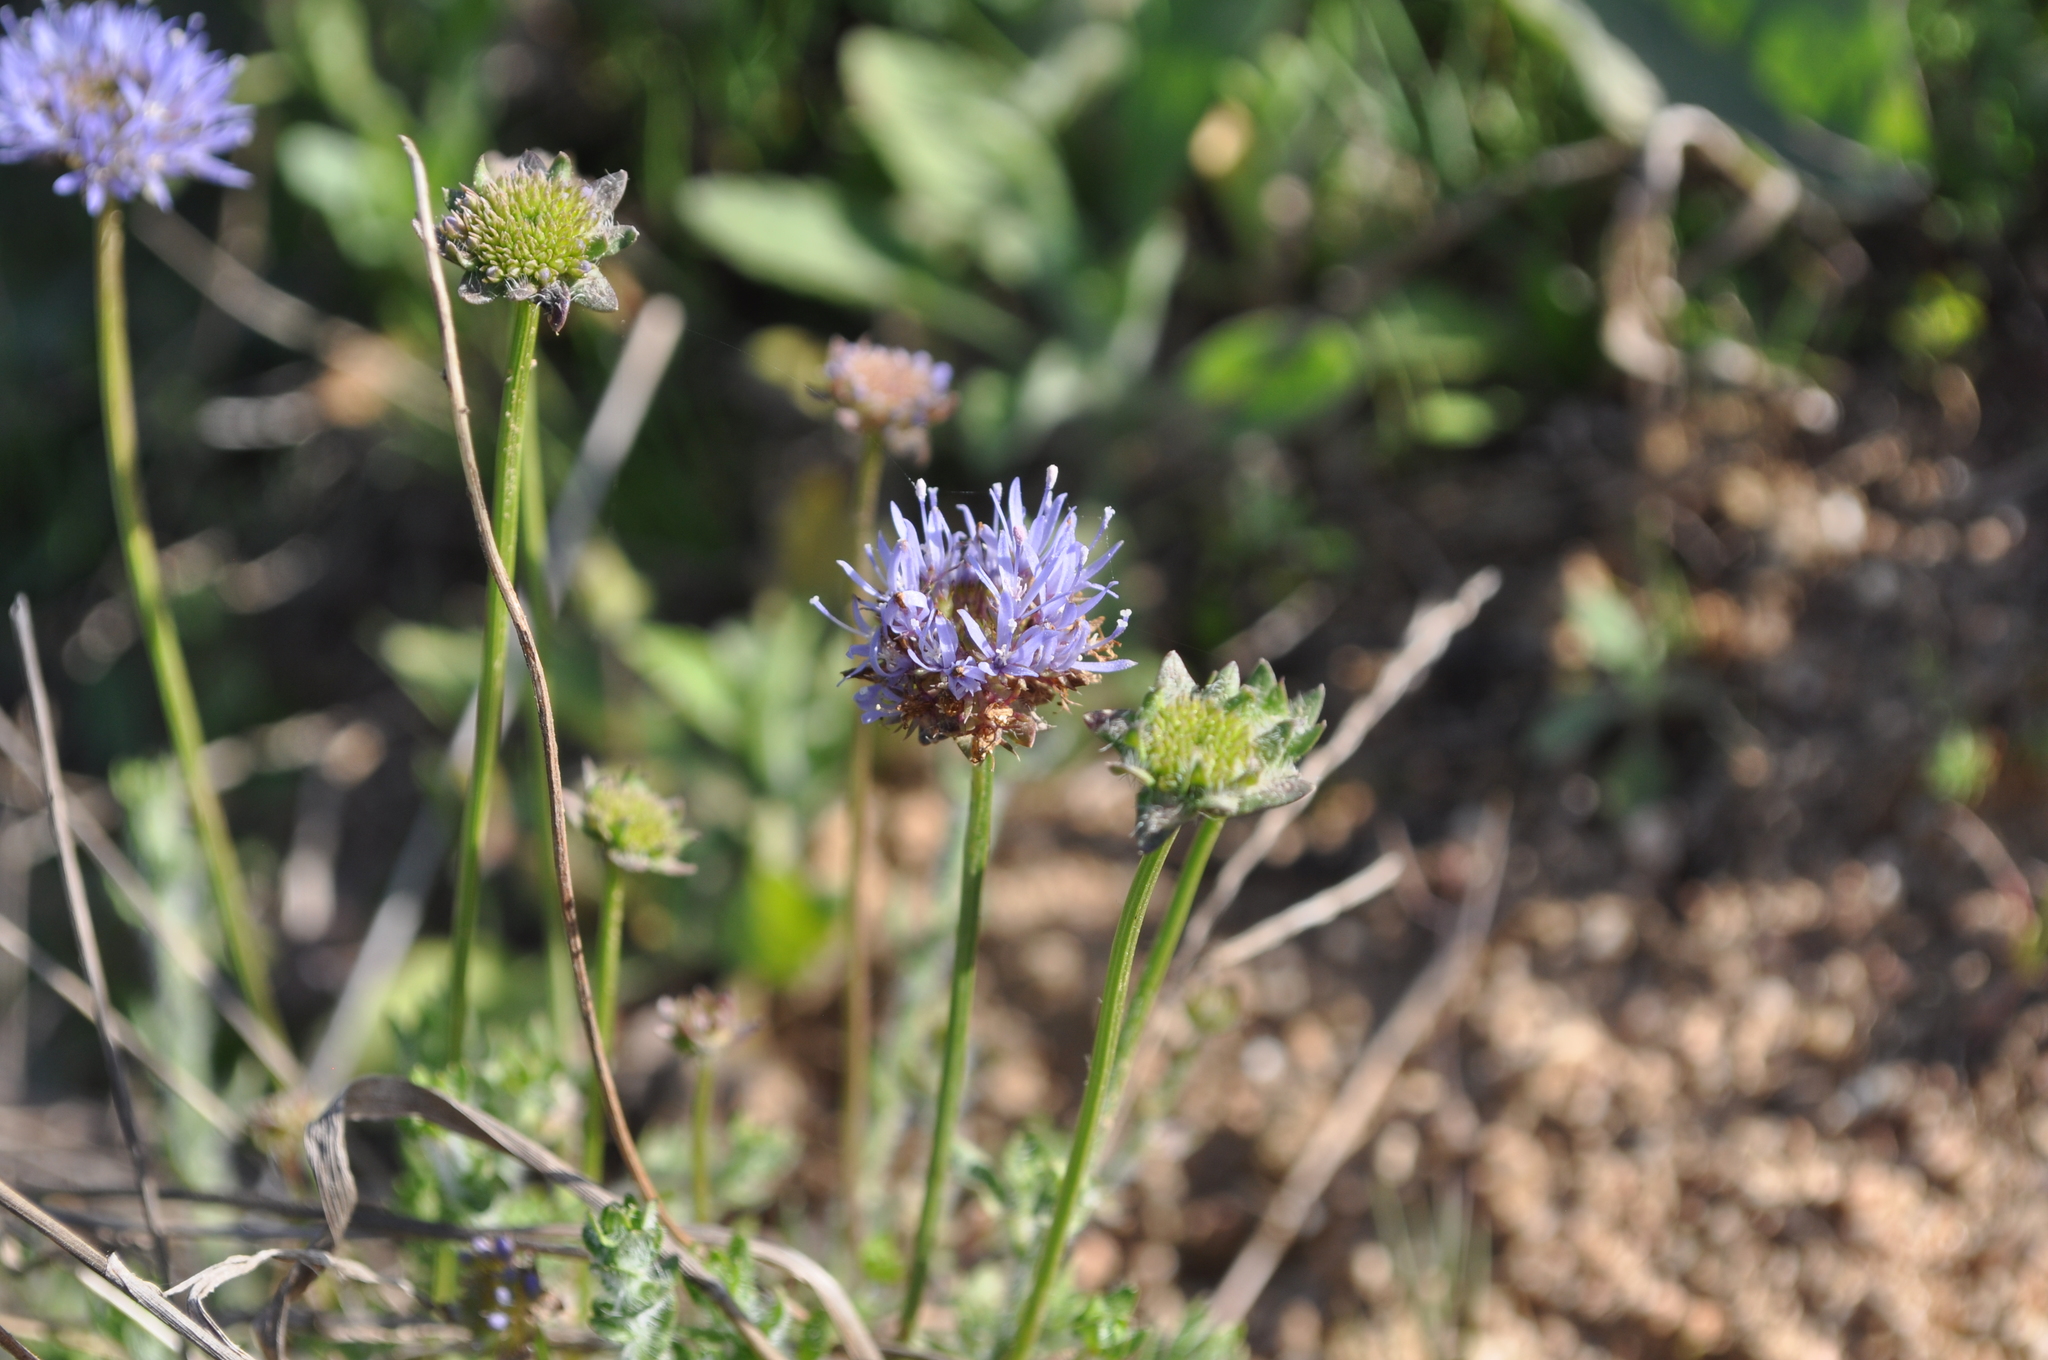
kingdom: Plantae
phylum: Tracheophyta
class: Magnoliopsida
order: Asterales
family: Campanulaceae
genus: Jasione
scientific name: Jasione montana
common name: Sheep's-bit
